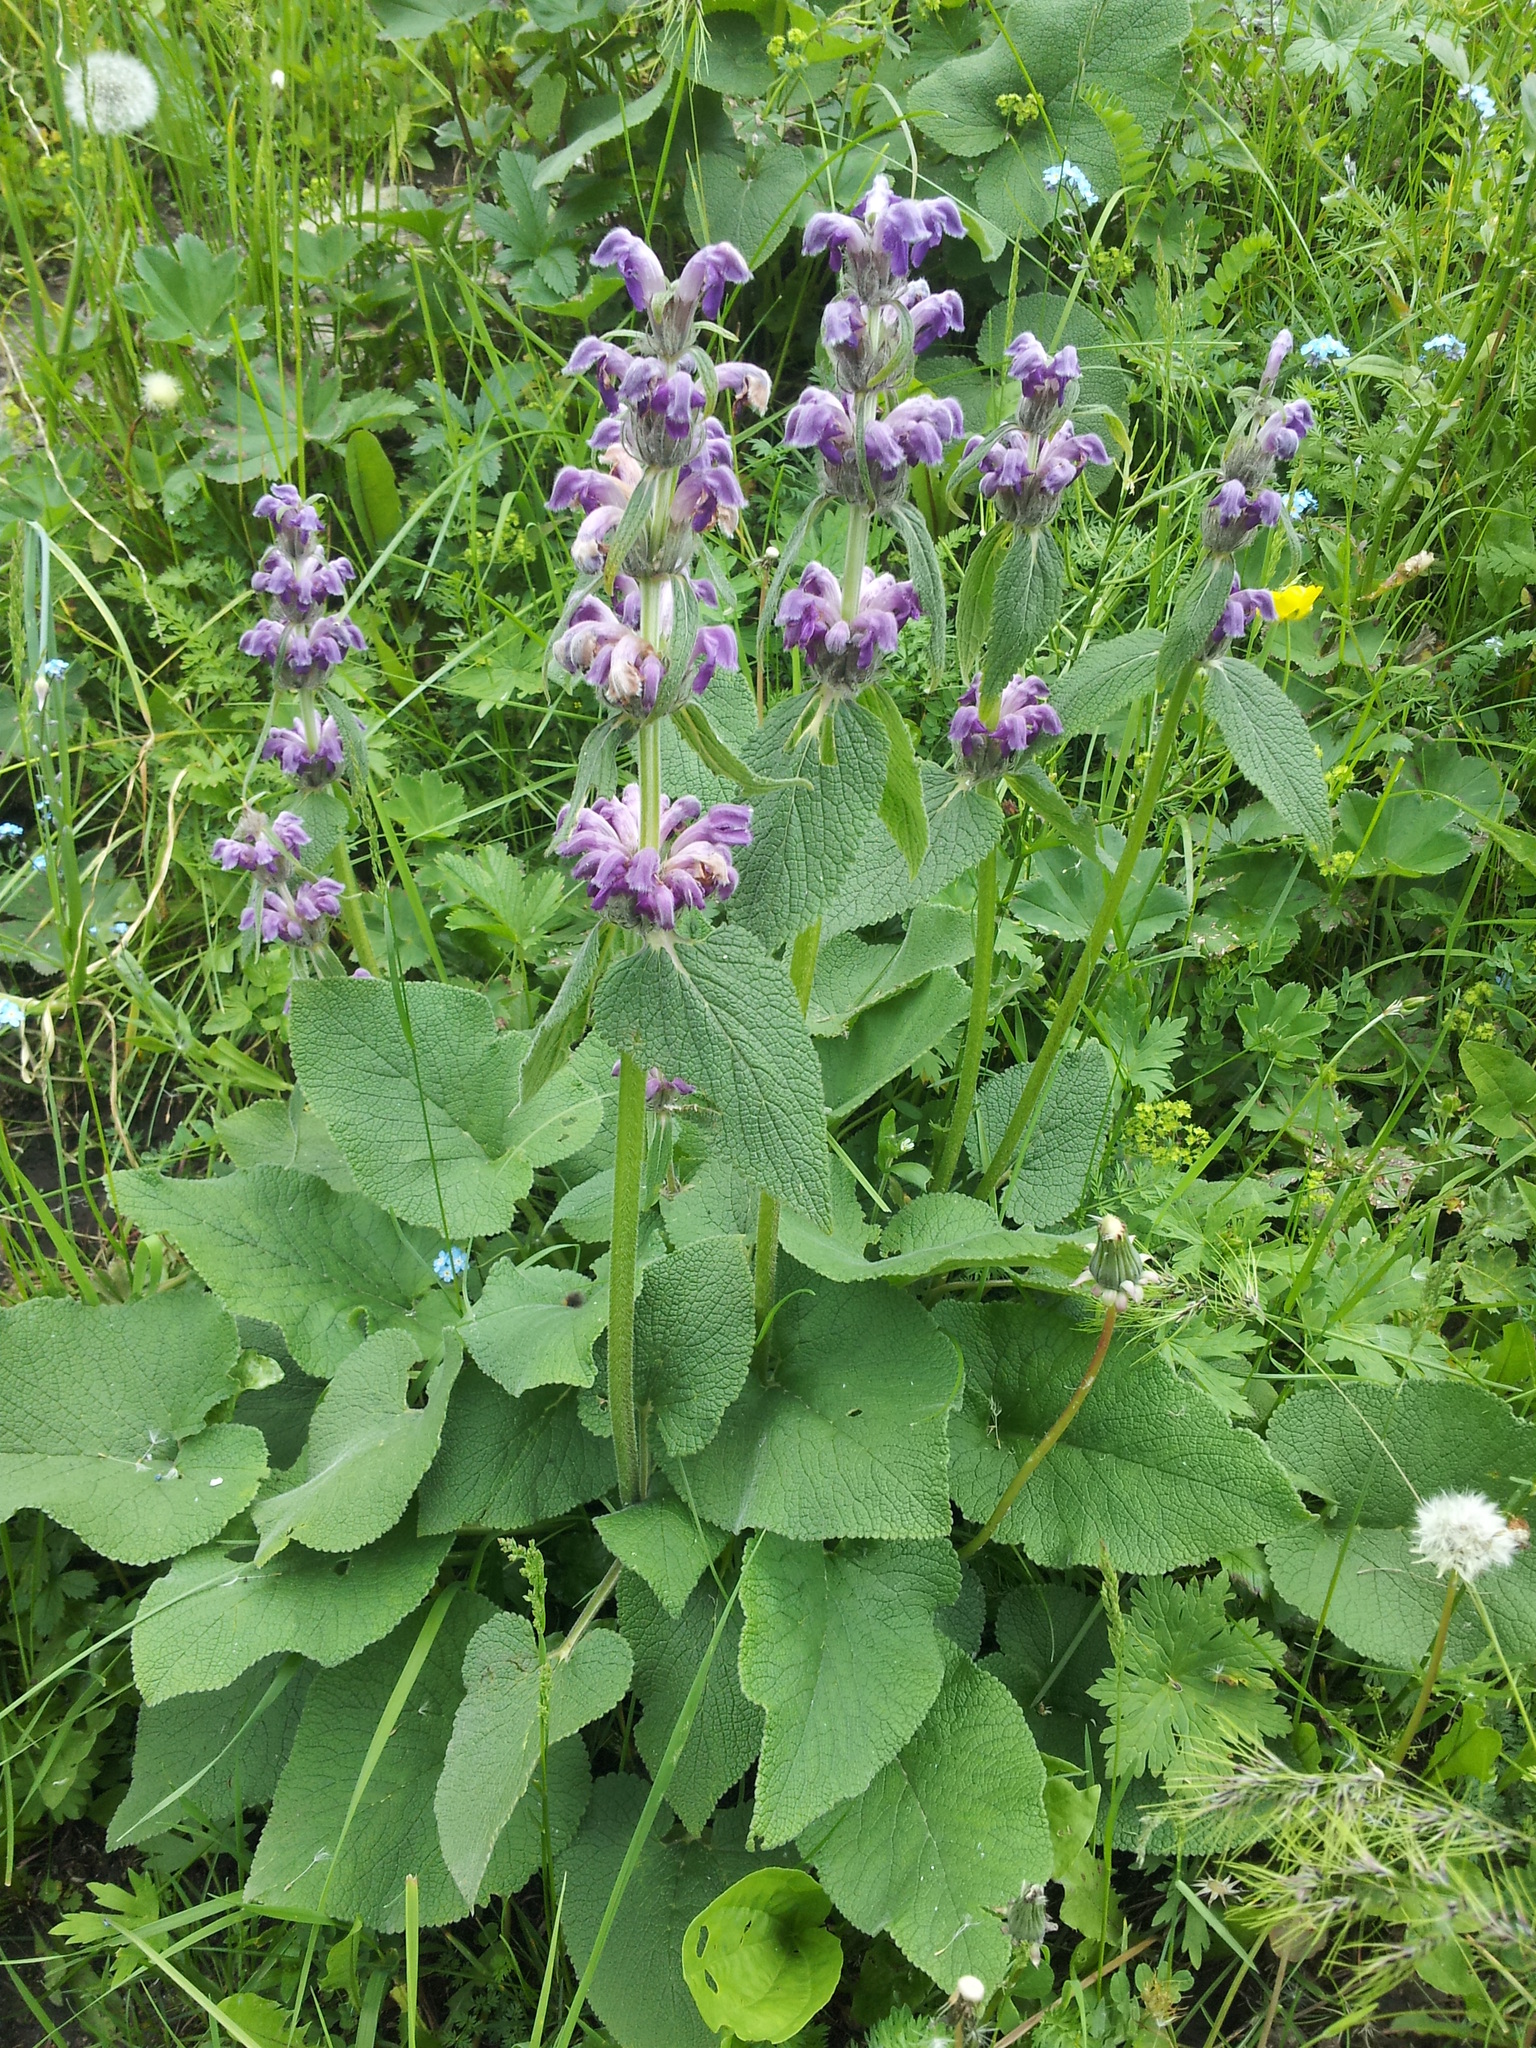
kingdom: Plantae
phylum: Tracheophyta
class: Magnoliopsida
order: Lamiales
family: Lamiaceae
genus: Phlomoides
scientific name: Phlomoides oreophila
